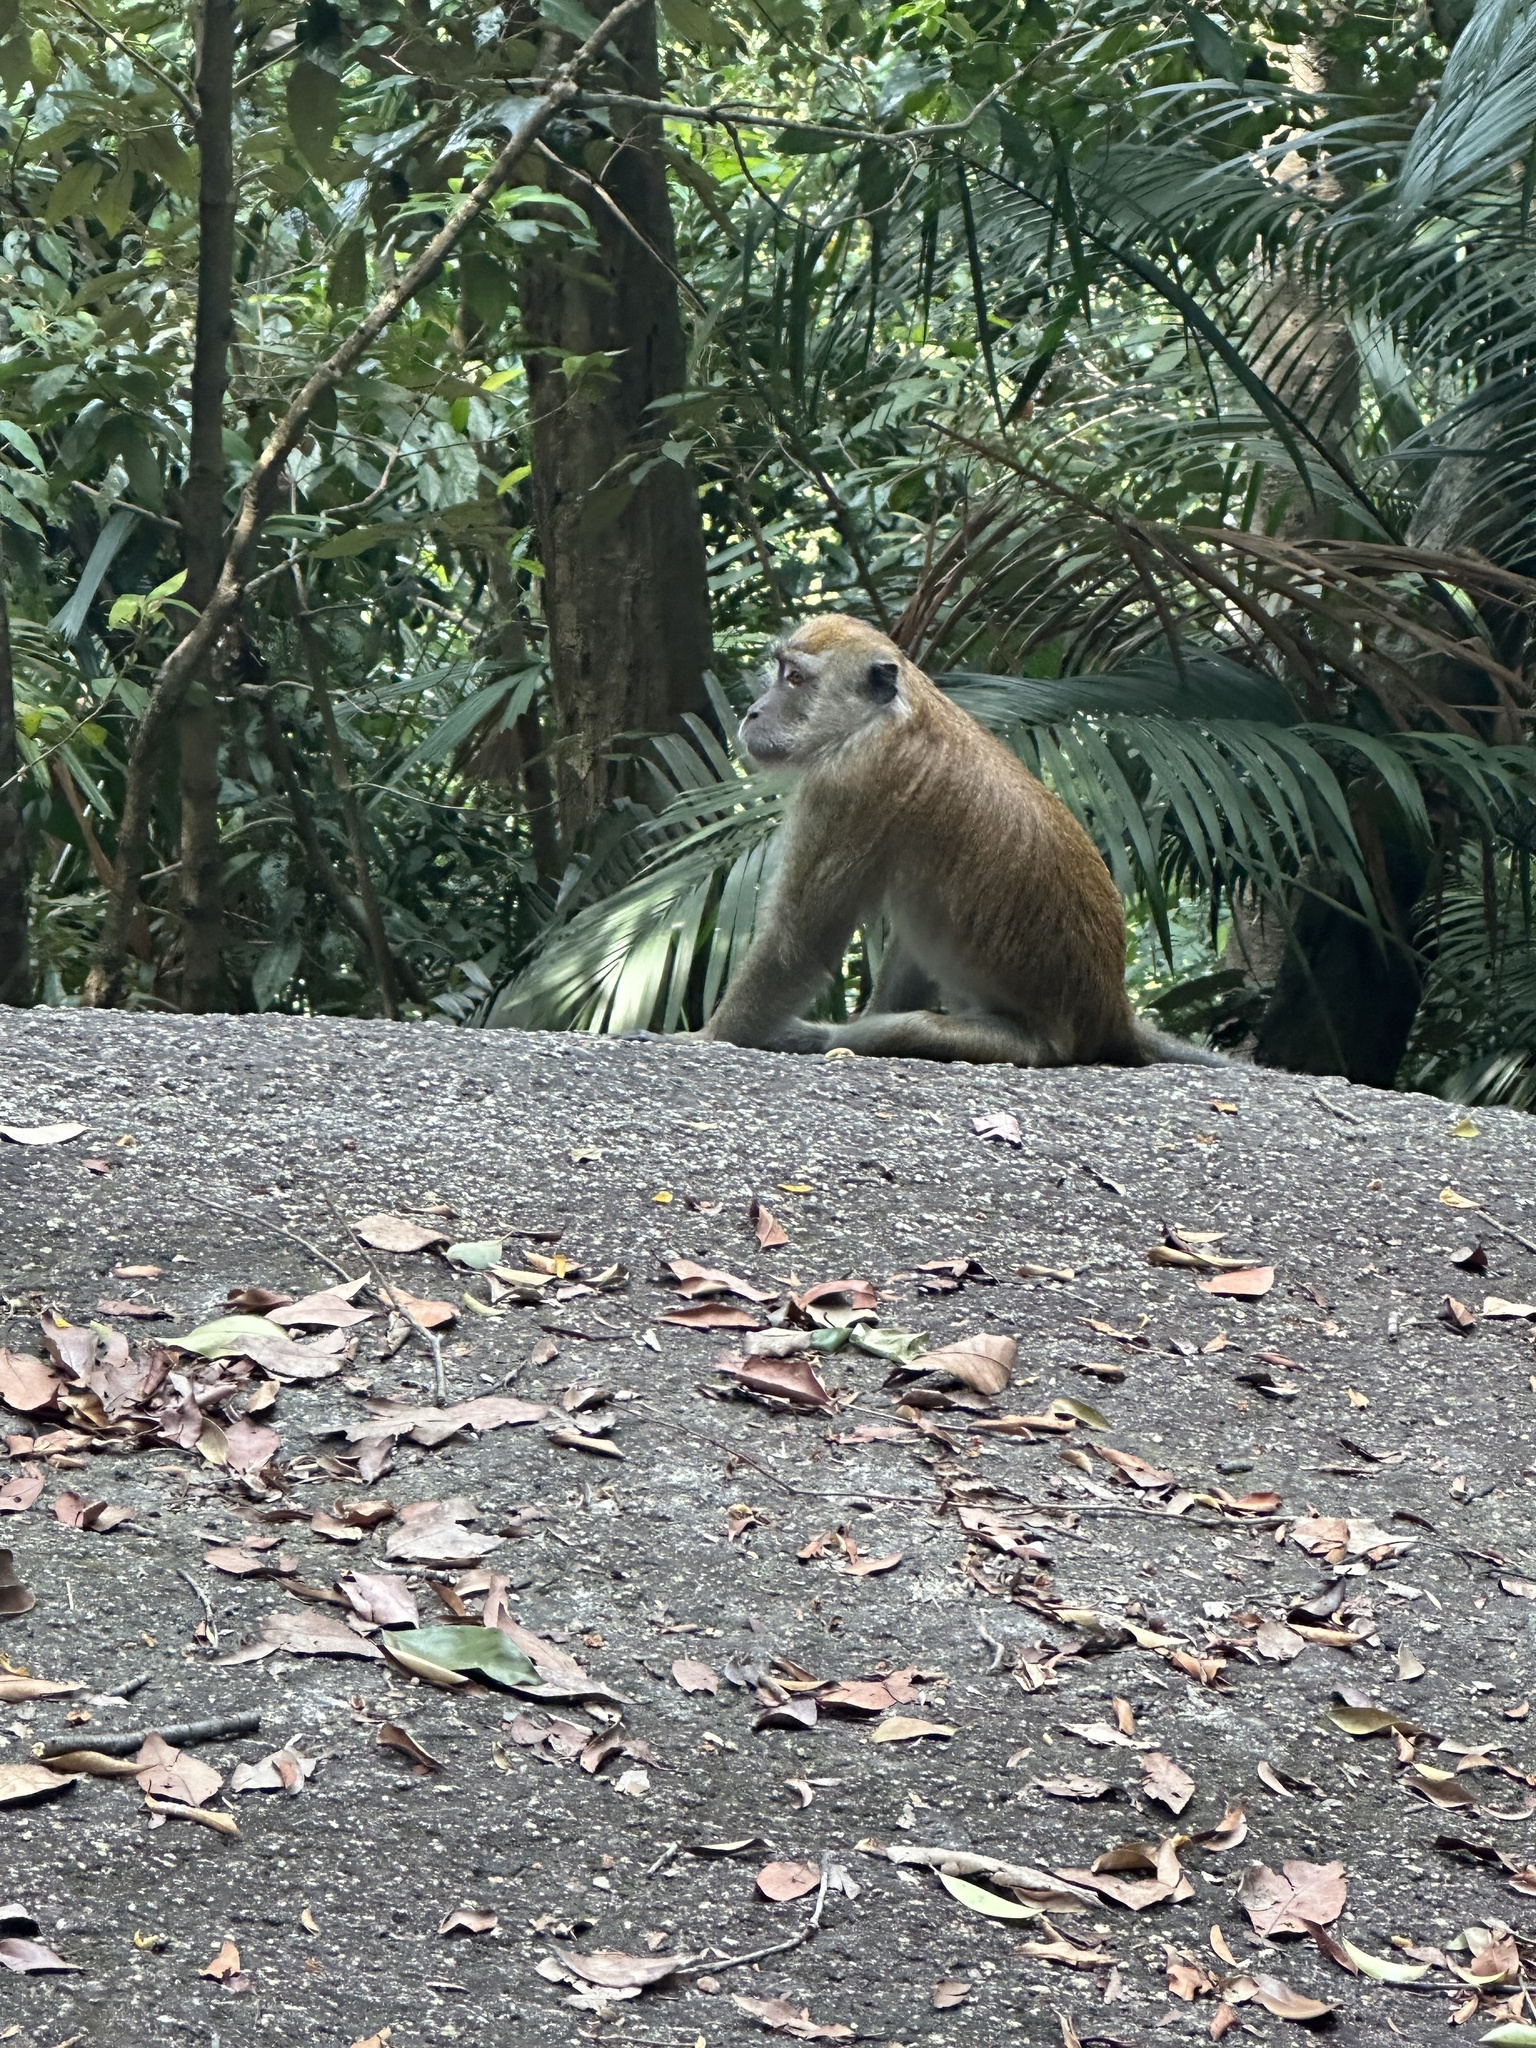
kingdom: Animalia
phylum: Chordata
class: Mammalia
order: Primates
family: Cercopithecidae
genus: Macaca
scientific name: Macaca fascicularis
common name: Crab-eating macaque
